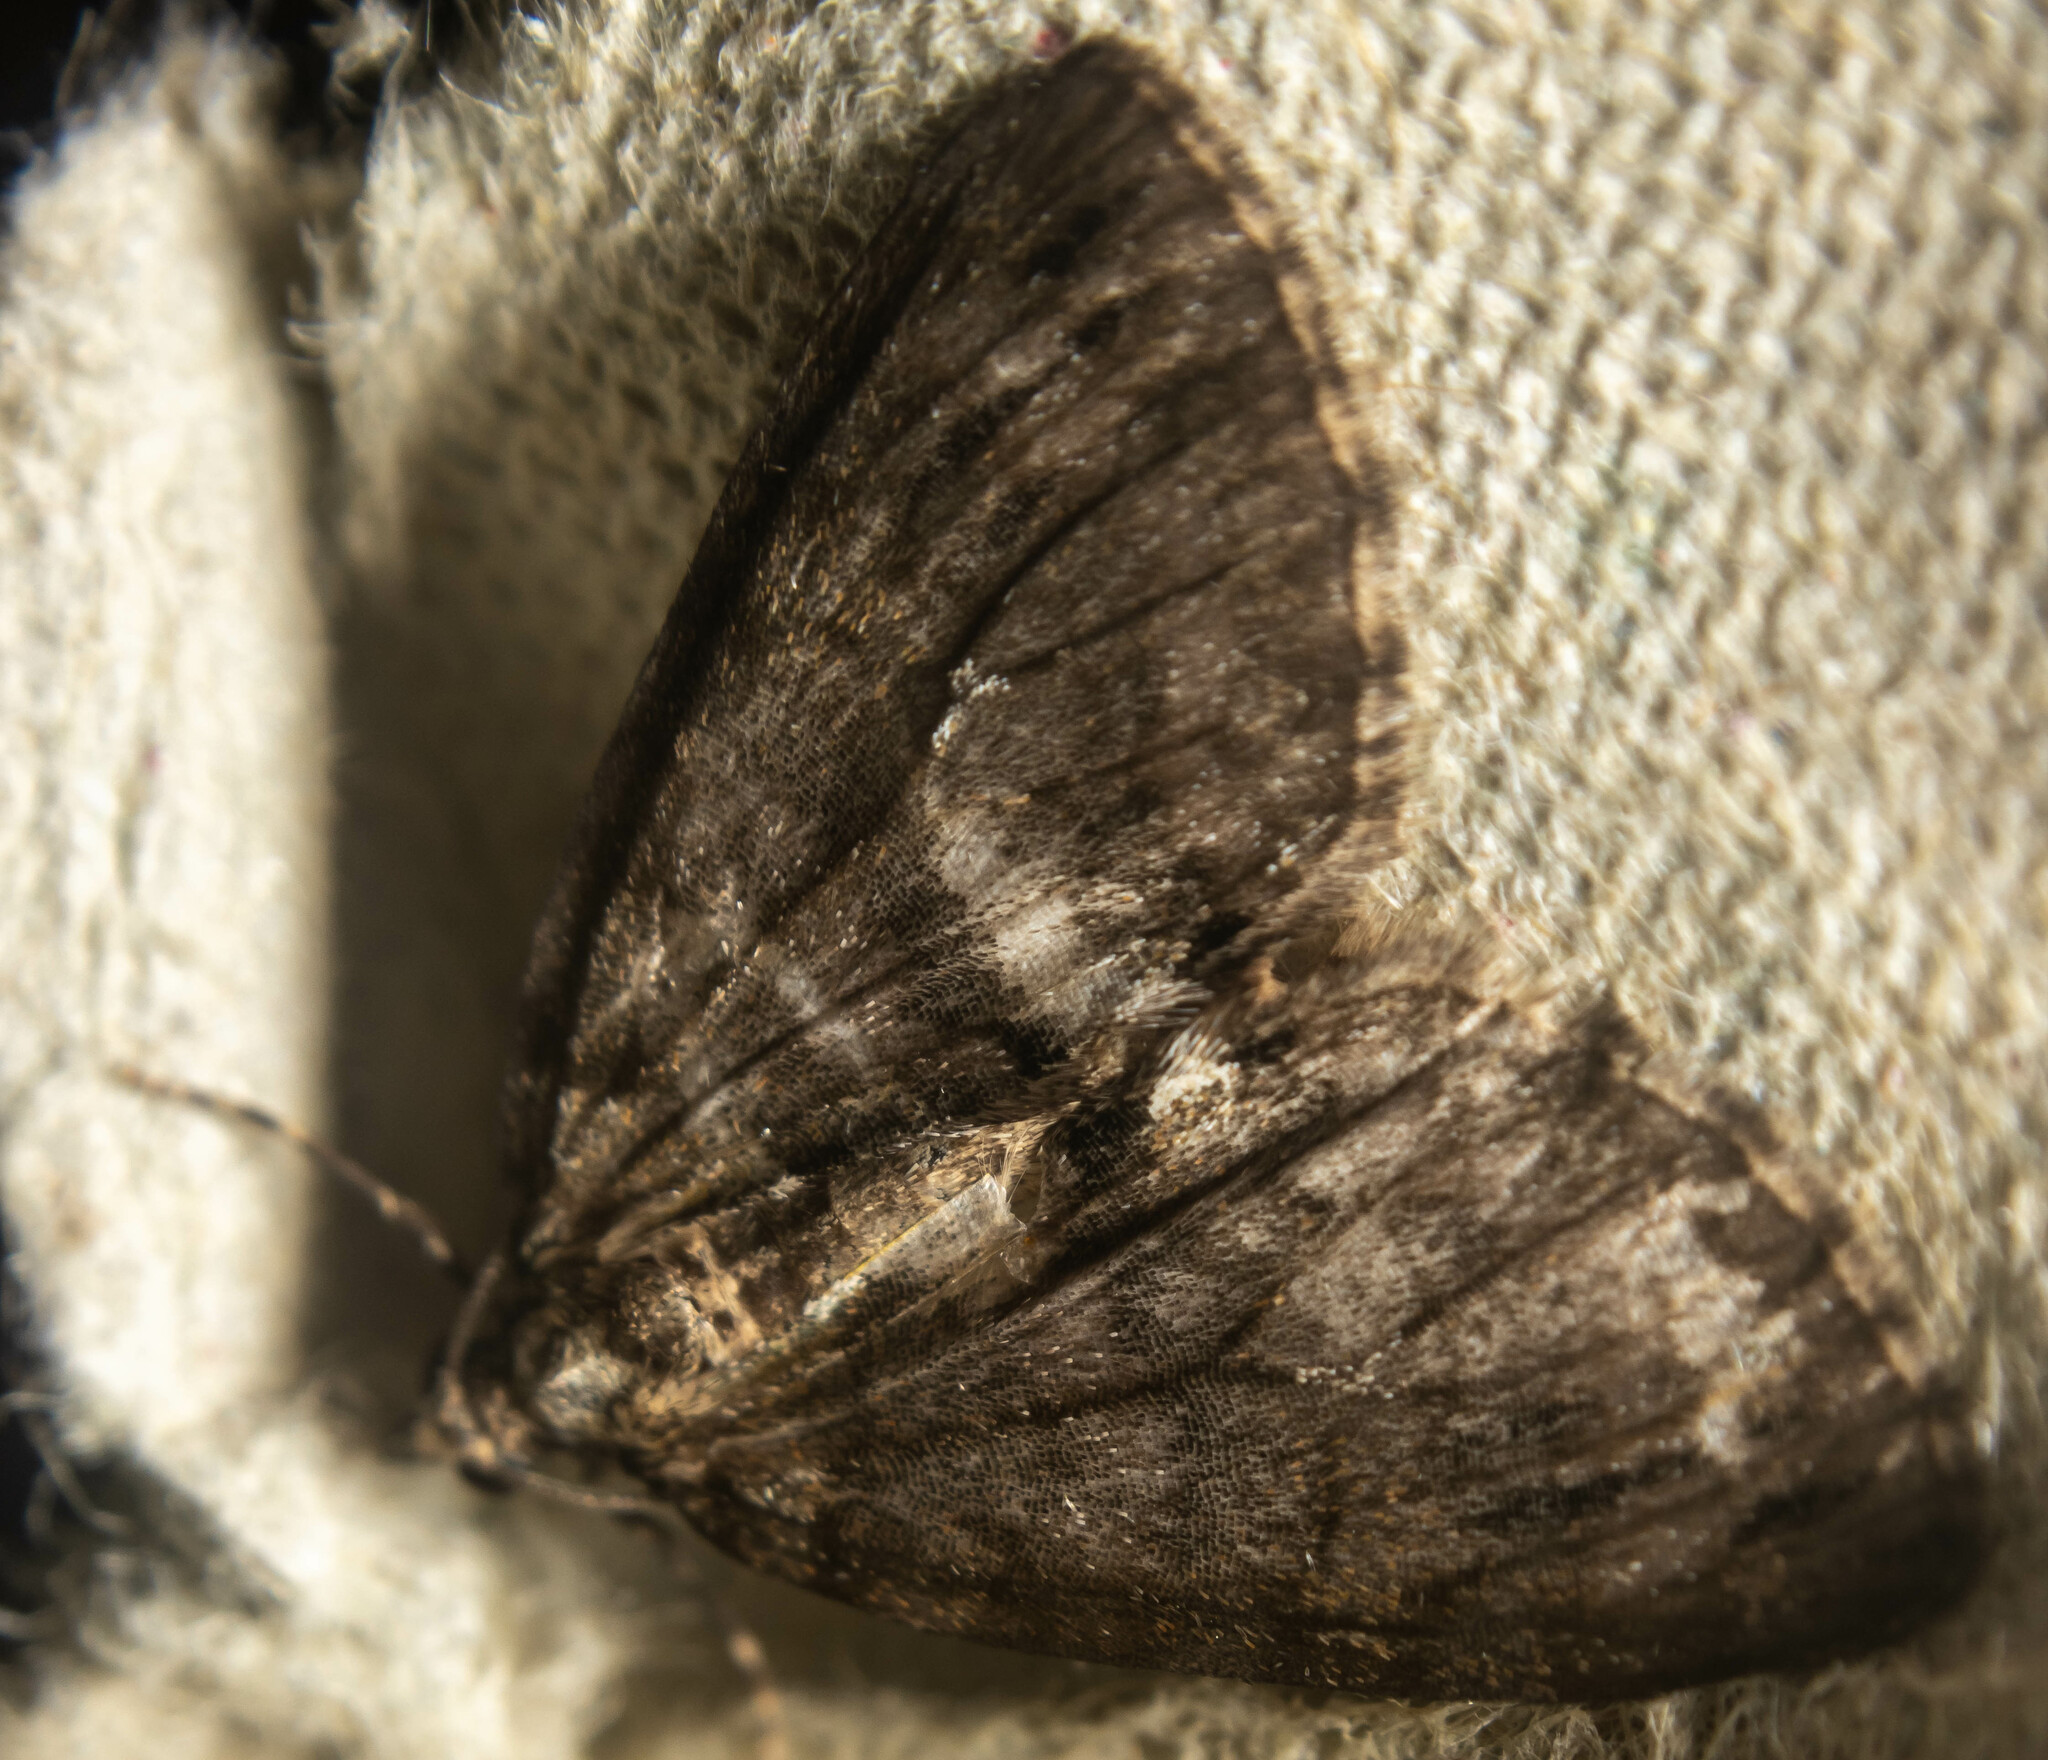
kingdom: Animalia
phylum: Arthropoda
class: Insecta
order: Lepidoptera
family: Geometridae
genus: Hydriomena
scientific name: Hydriomena impluviata
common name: May highflyer
